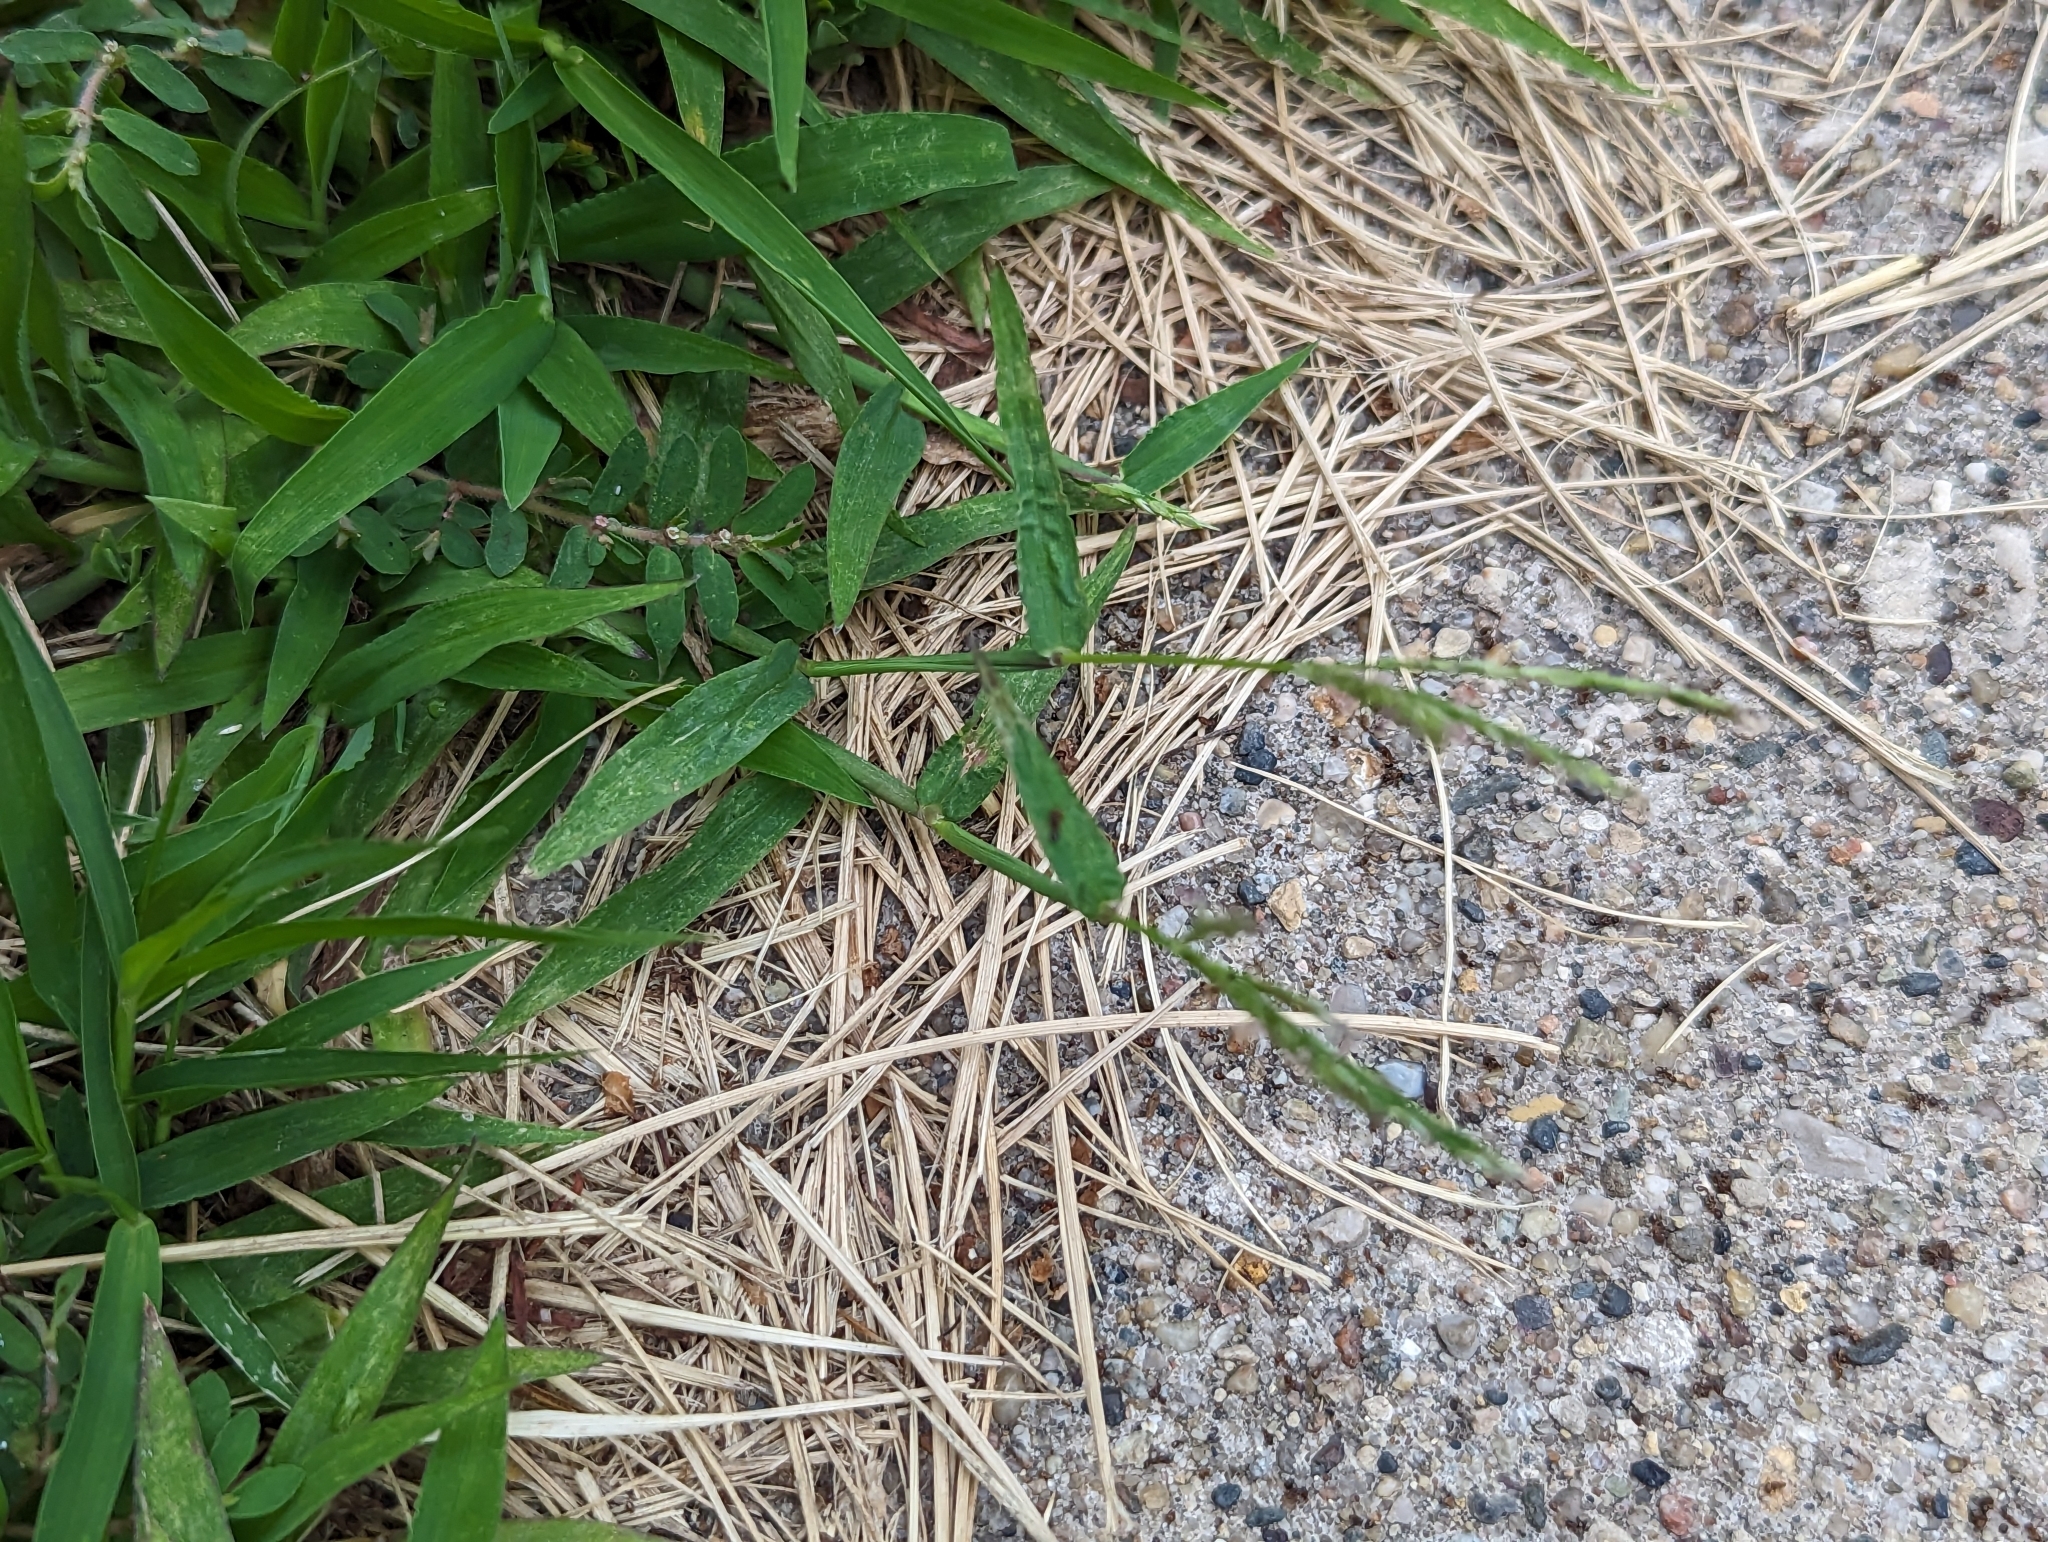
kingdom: Animalia
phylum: Arthropoda
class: Insecta
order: Hymenoptera
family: Formicidae
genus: Tetramorium
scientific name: Tetramorium immigrans
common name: Pavement ant
